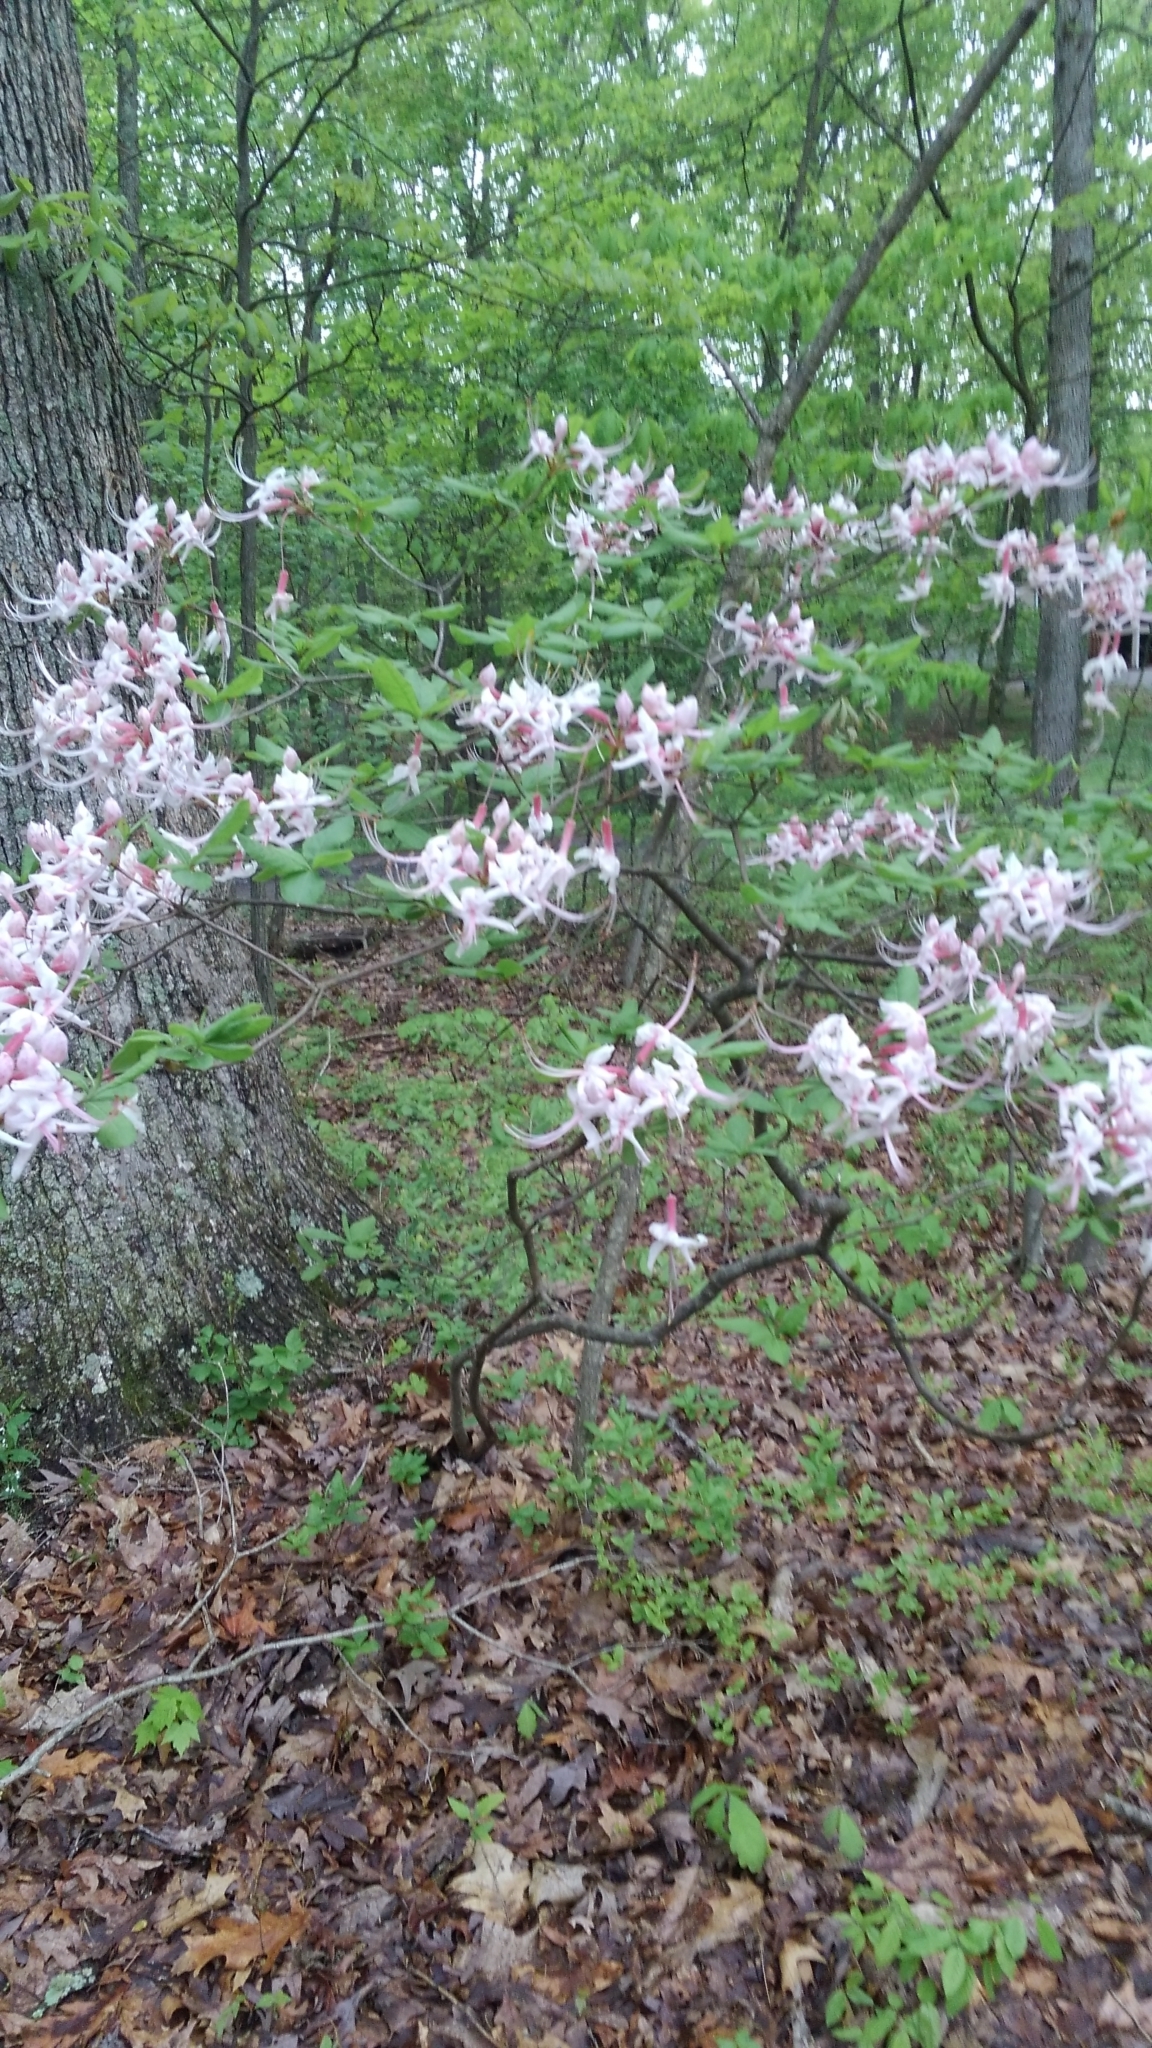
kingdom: Plantae
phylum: Tracheophyta
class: Magnoliopsida
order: Ericales
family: Ericaceae
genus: Rhododendron
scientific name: Rhododendron periclymenoides
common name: Election-pink
